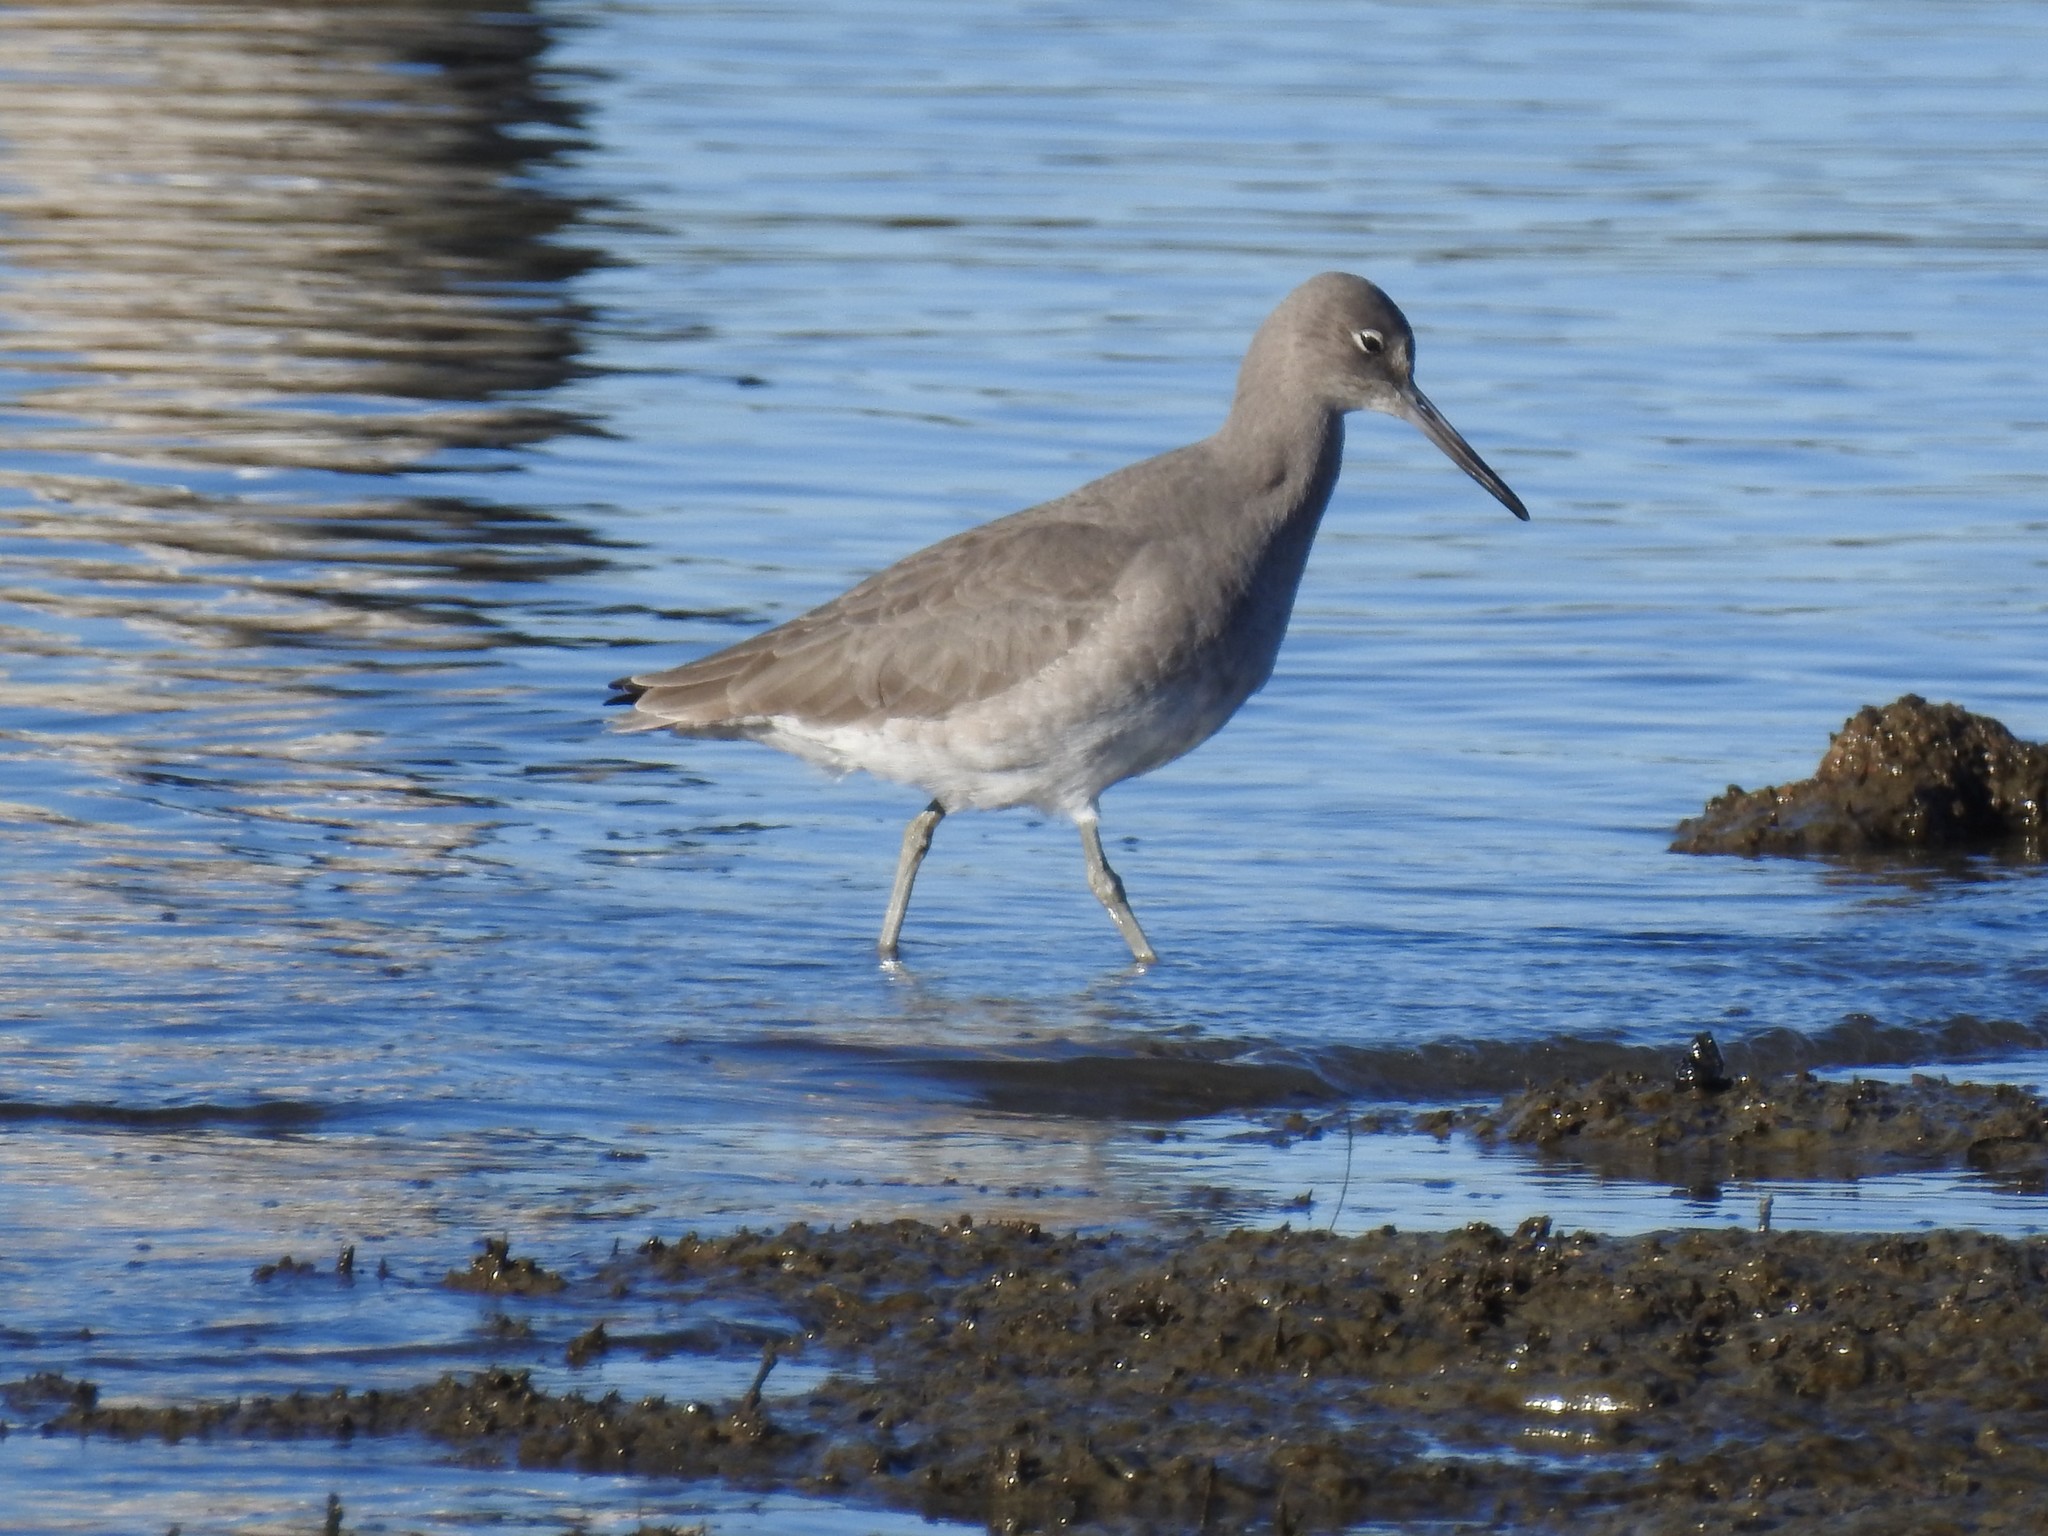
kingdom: Animalia
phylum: Chordata
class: Aves
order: Charadriiformes
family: Scolopacidae
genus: Tringa
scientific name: Tringa semipalmata
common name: Willet
